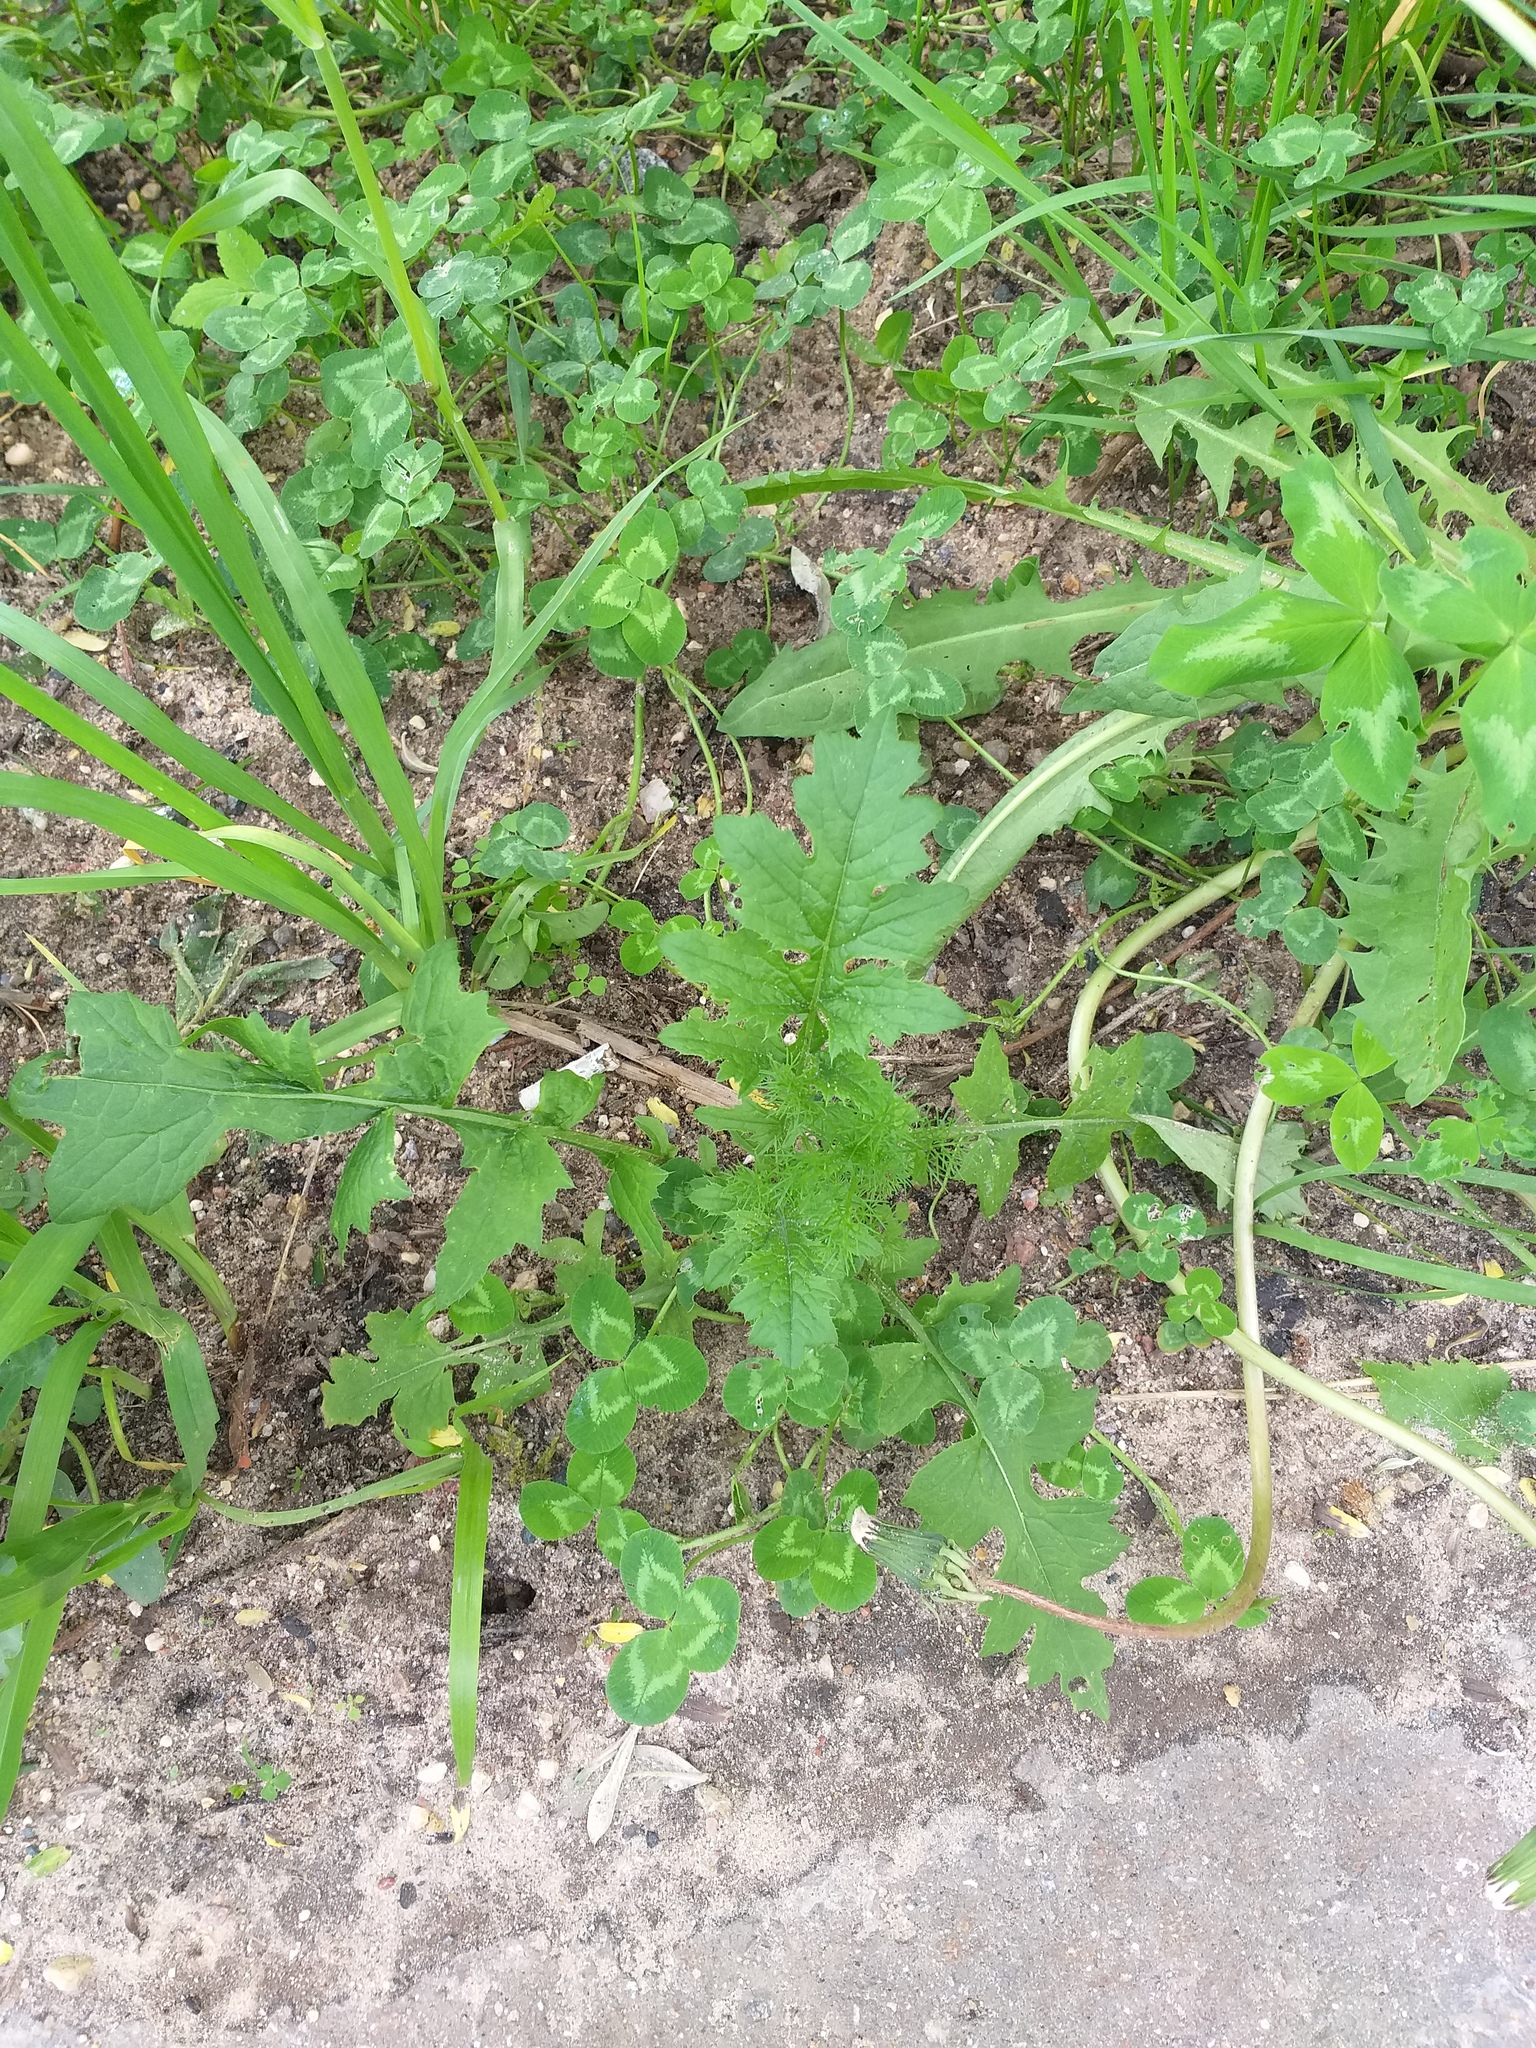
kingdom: Plantae
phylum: Tracheophyta
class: Magnoliopsida
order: Asterales
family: Asteraceae
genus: Carduus
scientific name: Carduus crispus
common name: Welted thistle
